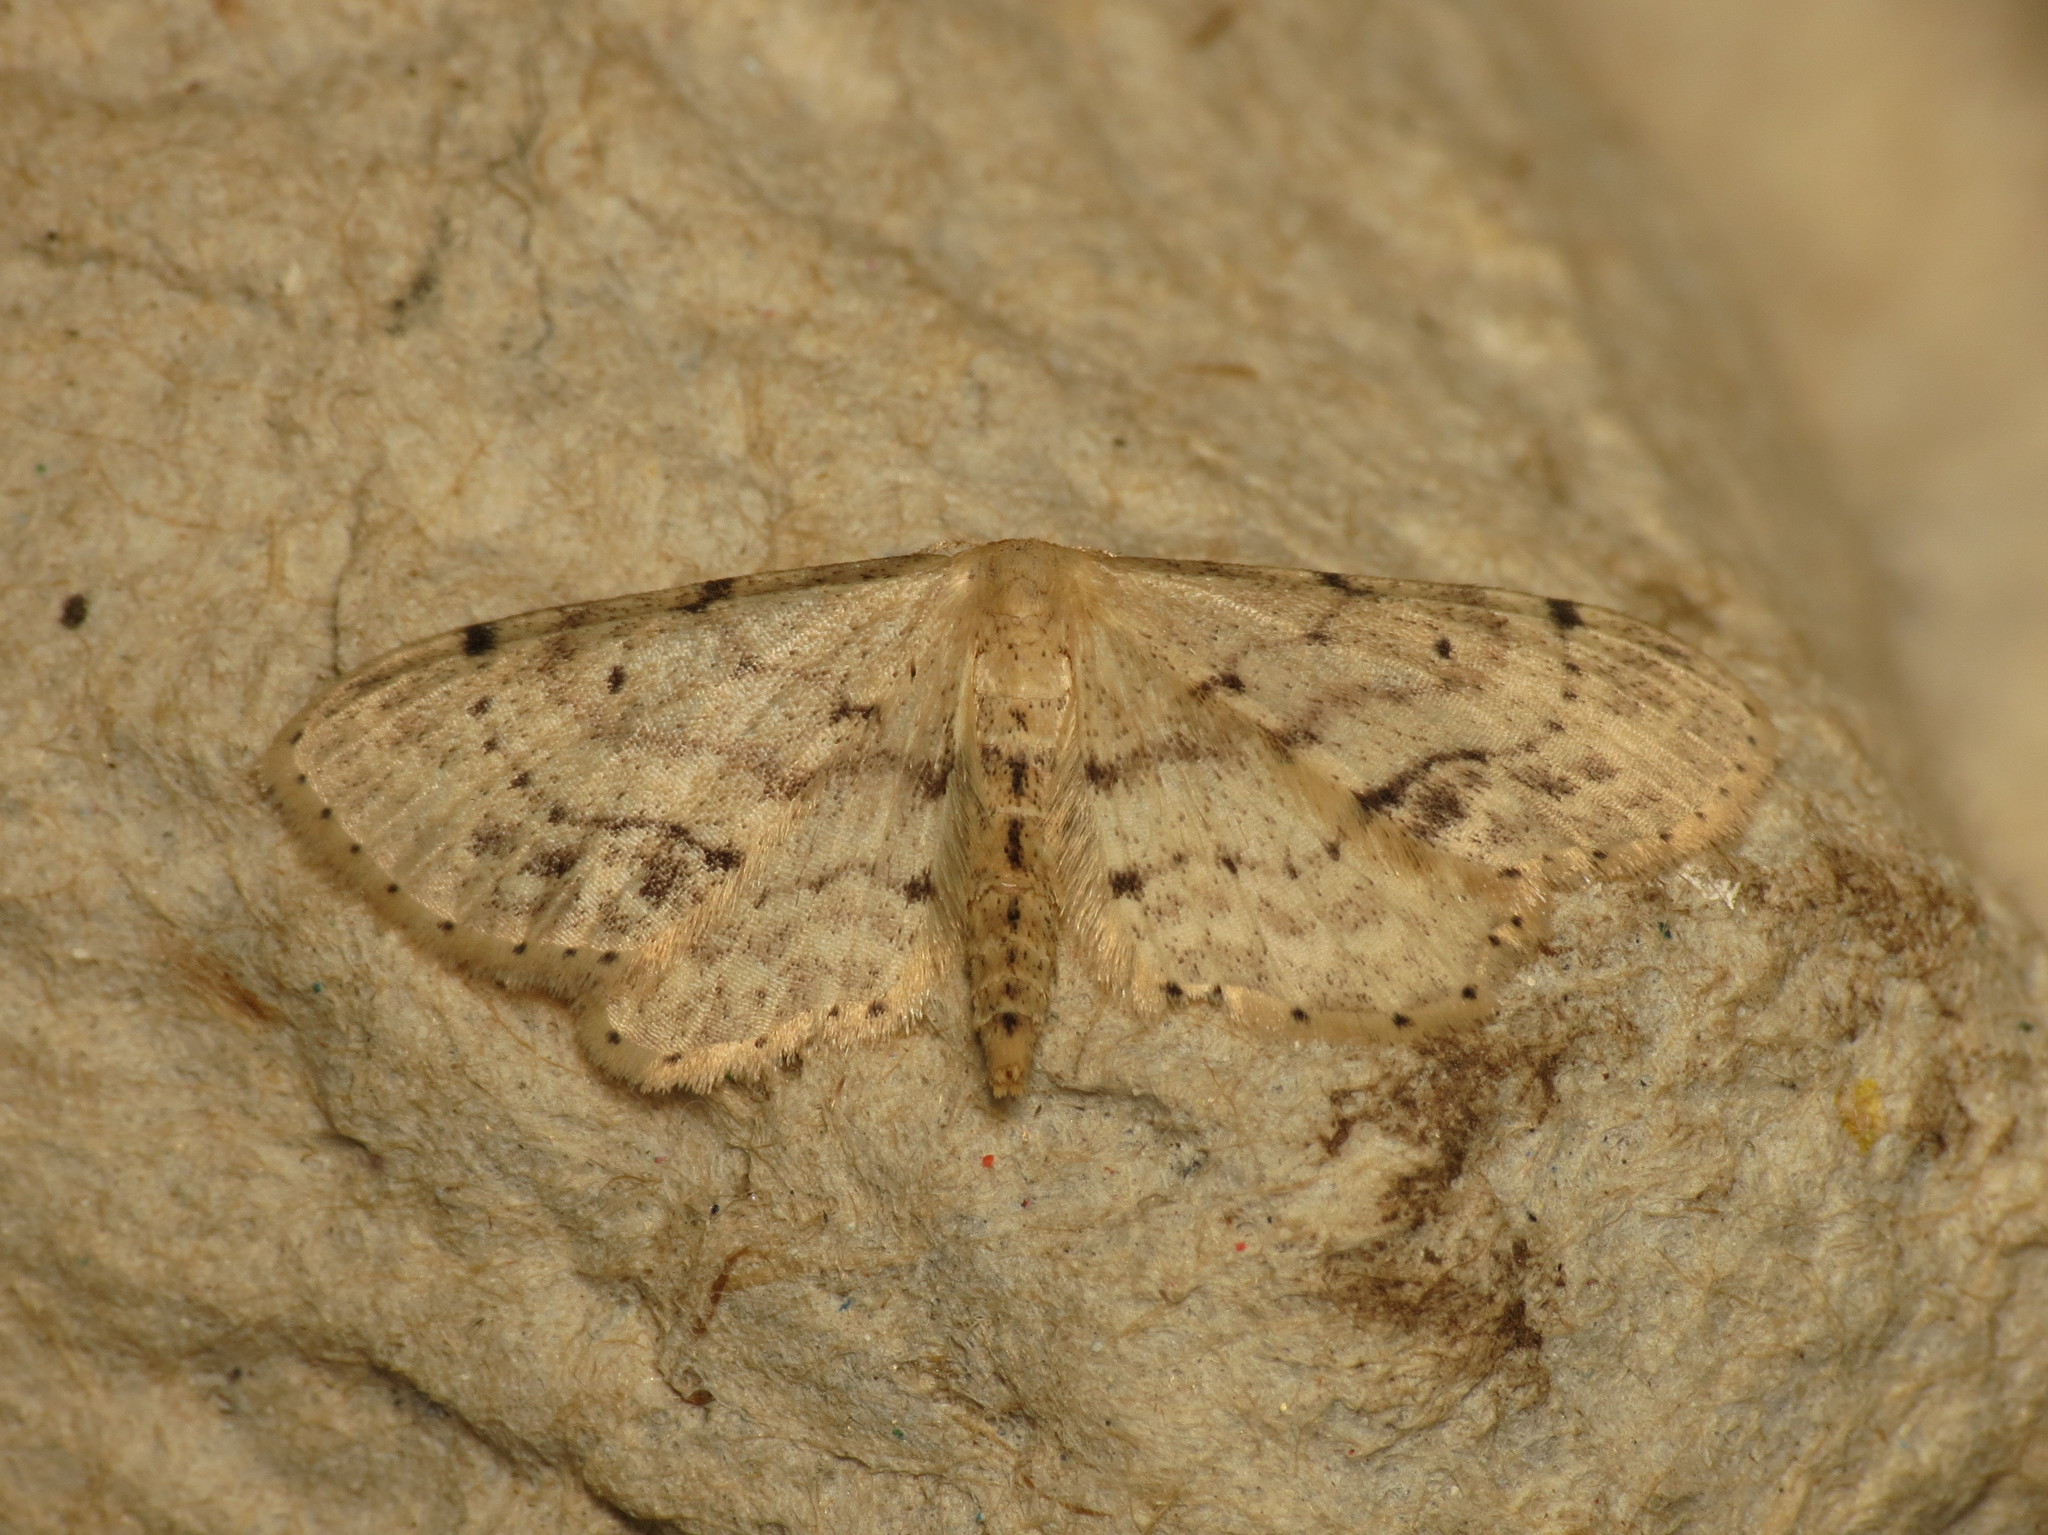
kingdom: Animalia
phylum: Arthropoda
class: Insecta
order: Lepidoptera
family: Geometridae
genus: Idaea
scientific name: Idaea dimidiata
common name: Single-dotted wave
